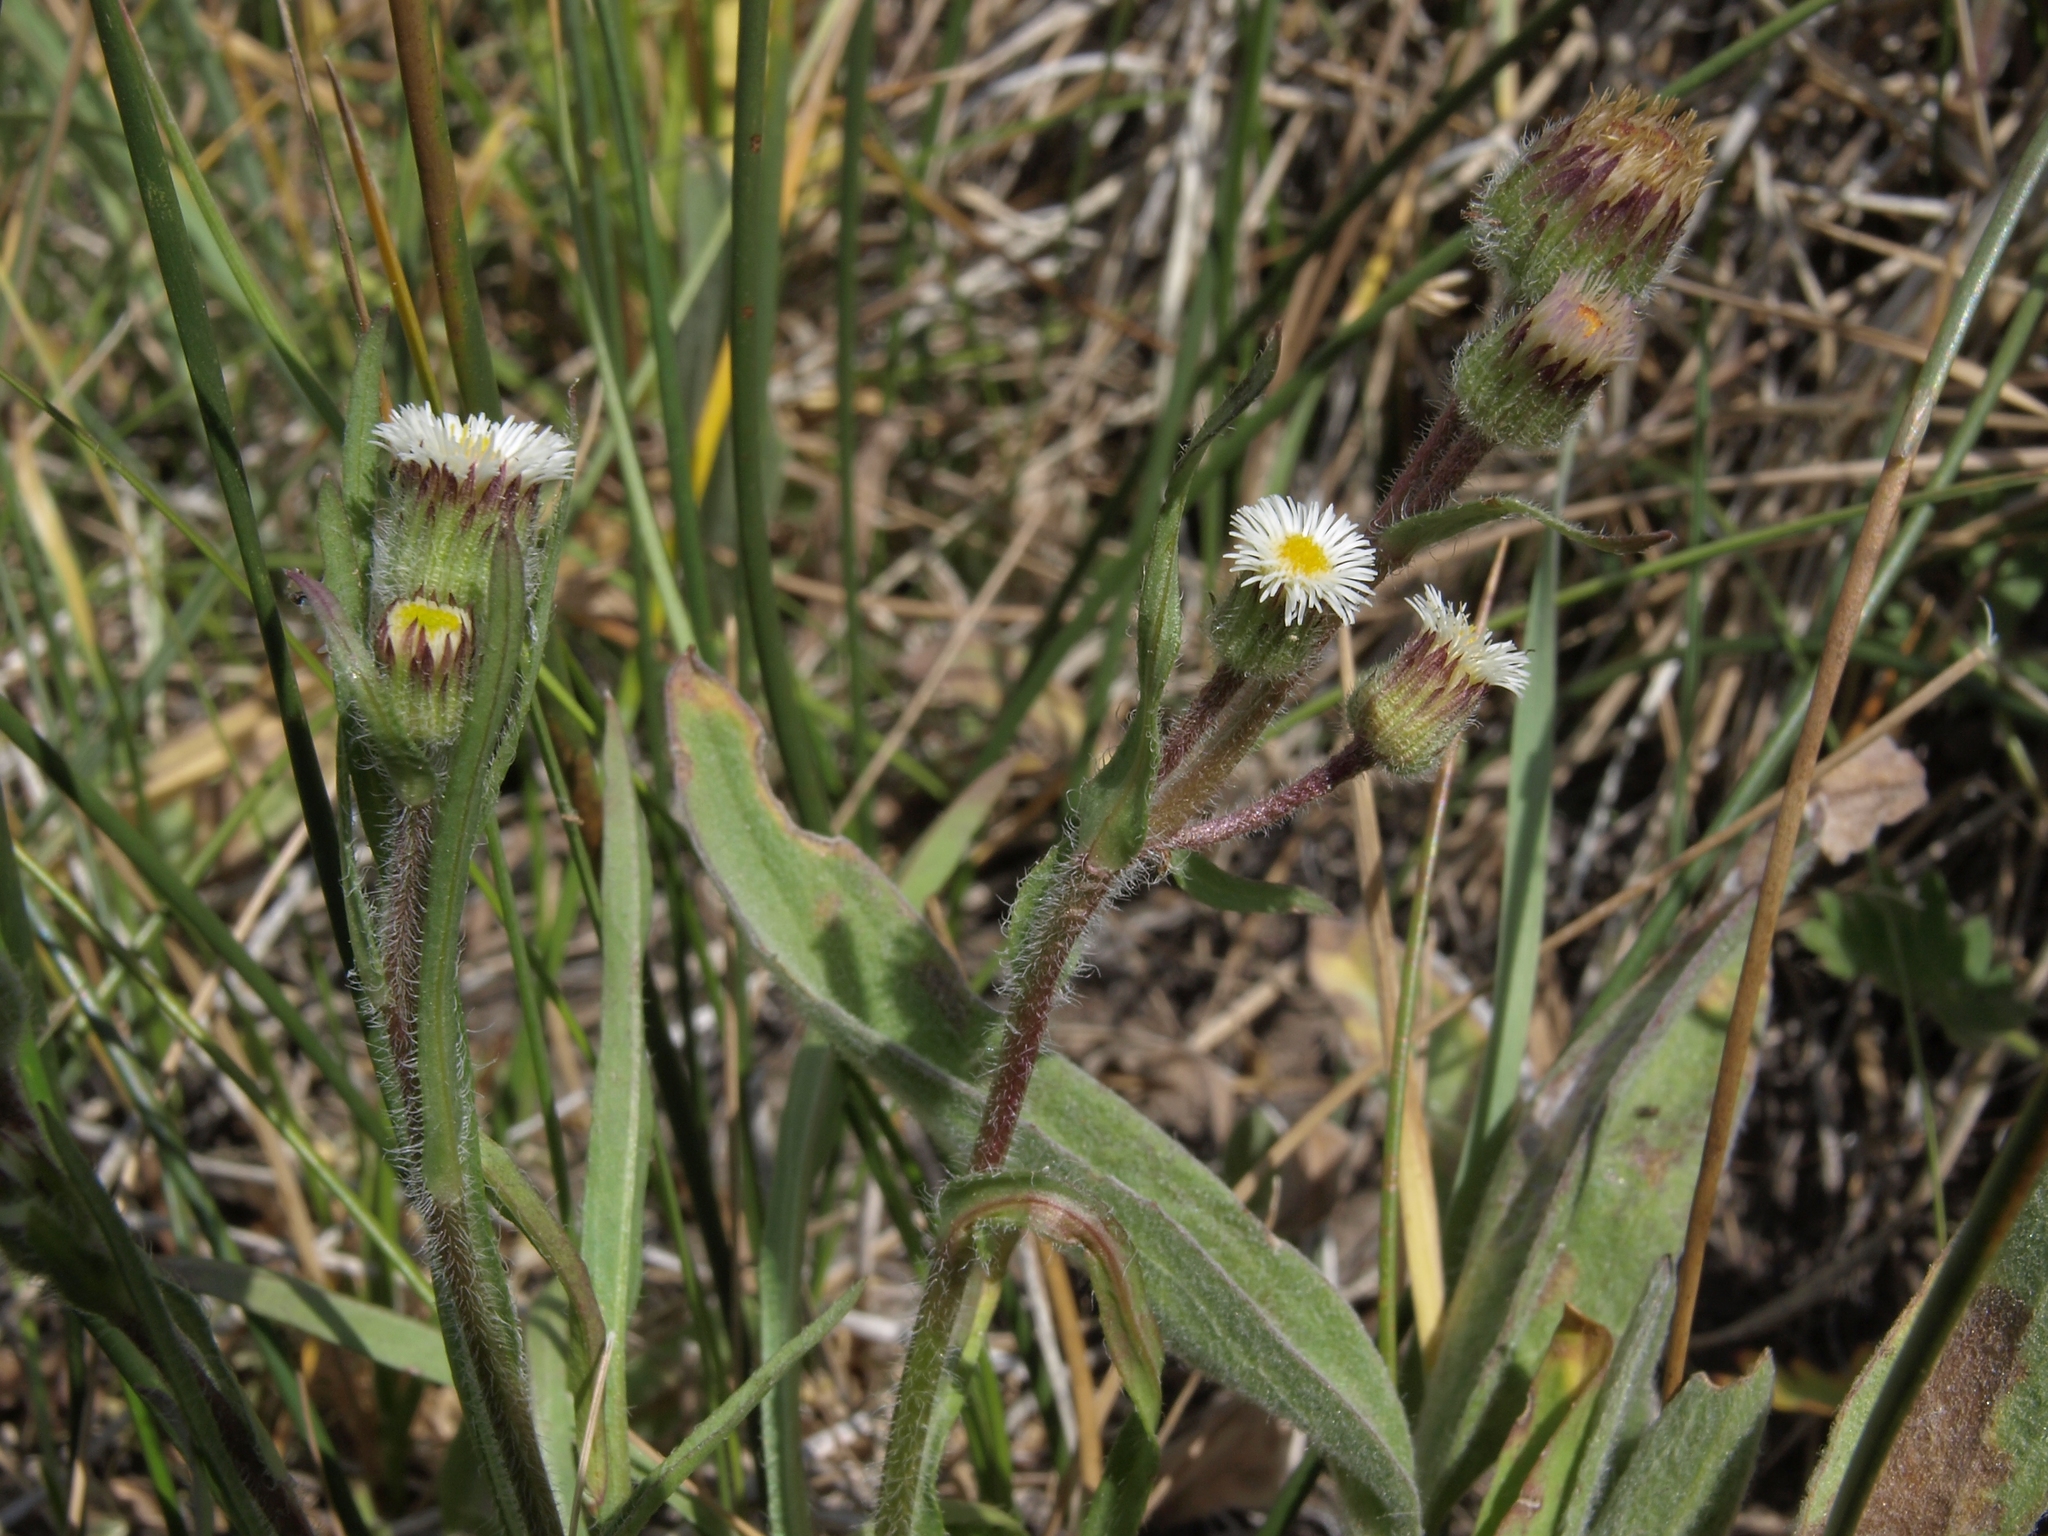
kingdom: Plantae
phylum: Tracheophyta
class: Magnoliopsida
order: Asterales
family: Asteraceae
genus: Erigeron
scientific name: Erigeron lonchophyllus
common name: Short-ray fleabane
